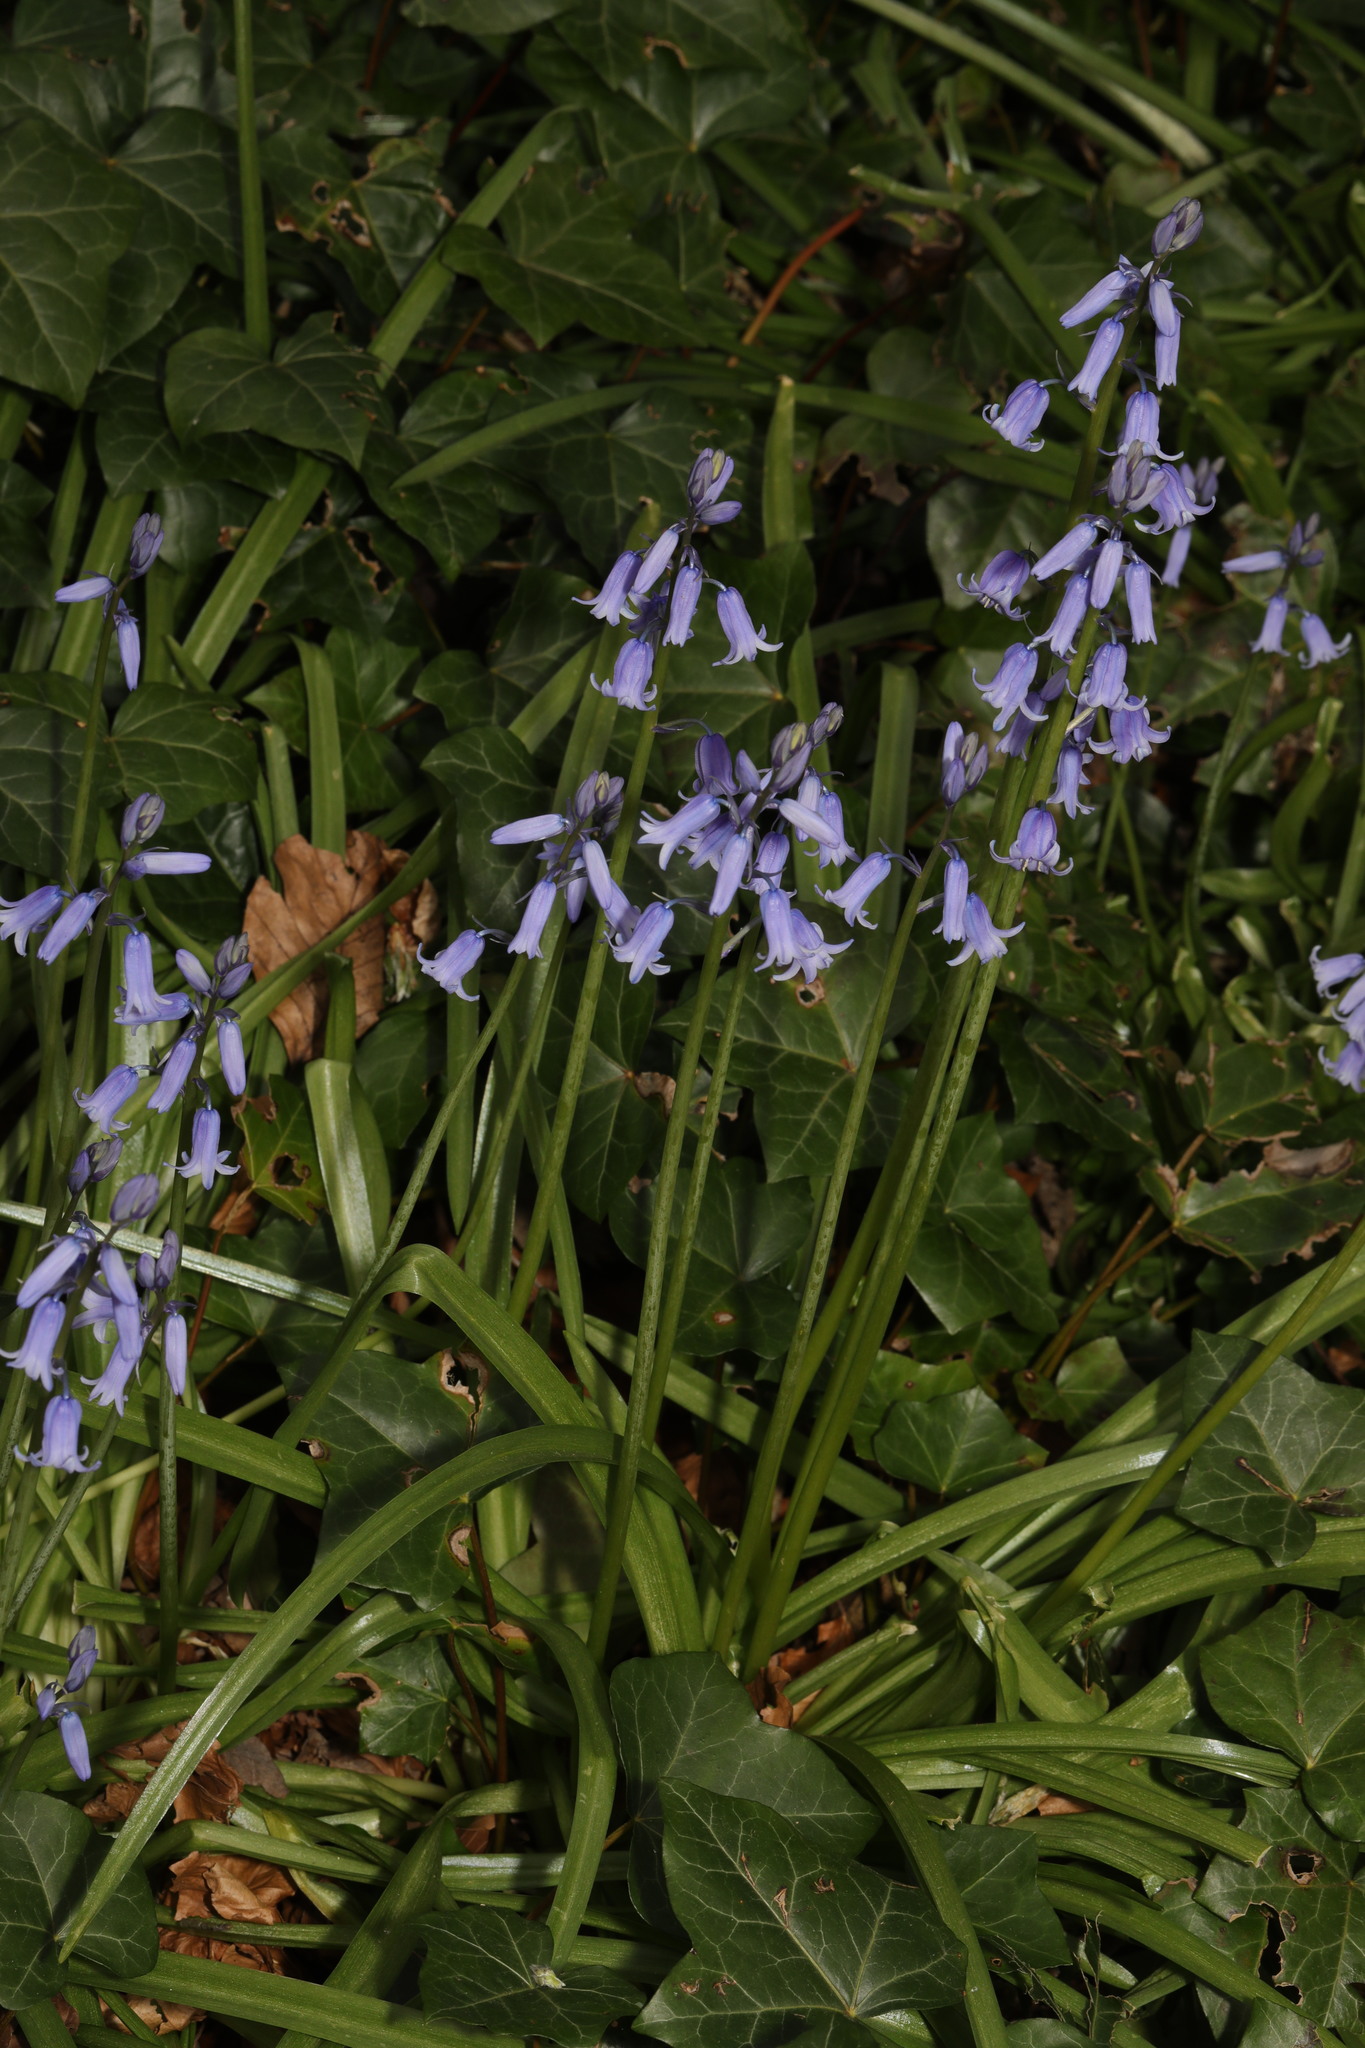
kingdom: Plantae
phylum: Tracheophyta
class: Liliopsida
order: Asparagales
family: Asparagaceae
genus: Hyacinthoides
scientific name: Hyacinthoides massartiana
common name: Hyacinthoides
